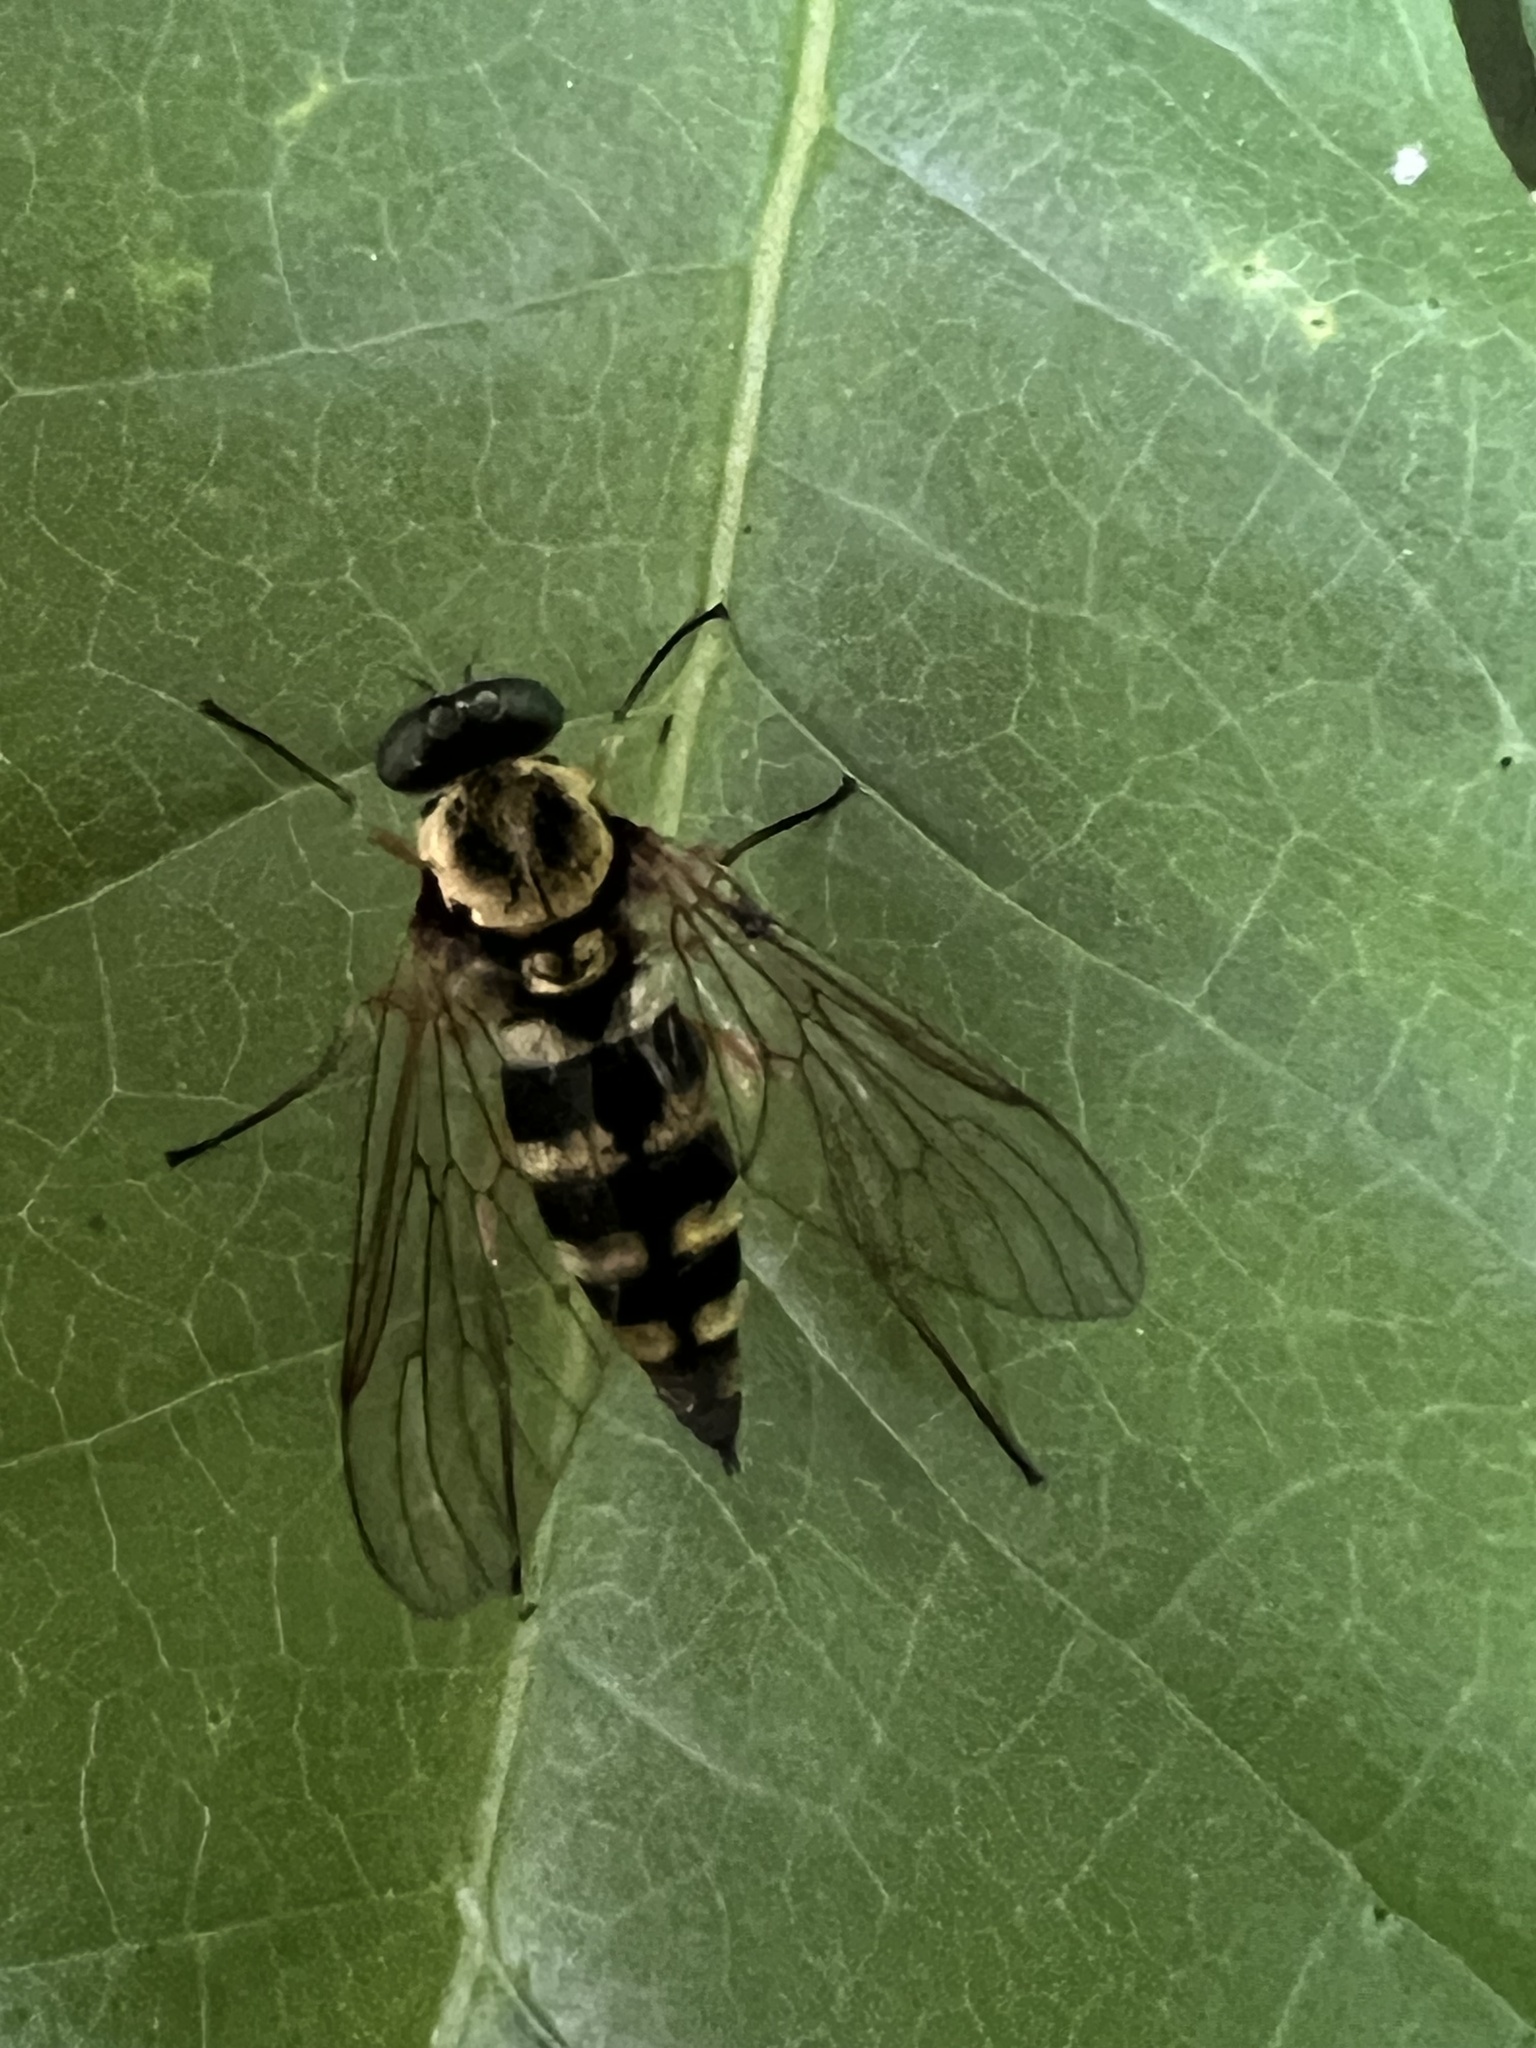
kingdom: Animalia
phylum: Arthropoda
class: Insecta
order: Diptera
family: Rhagionidae
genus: Chrysopilus
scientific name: Chrysopilus ornatus
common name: Ornate snipe fly
